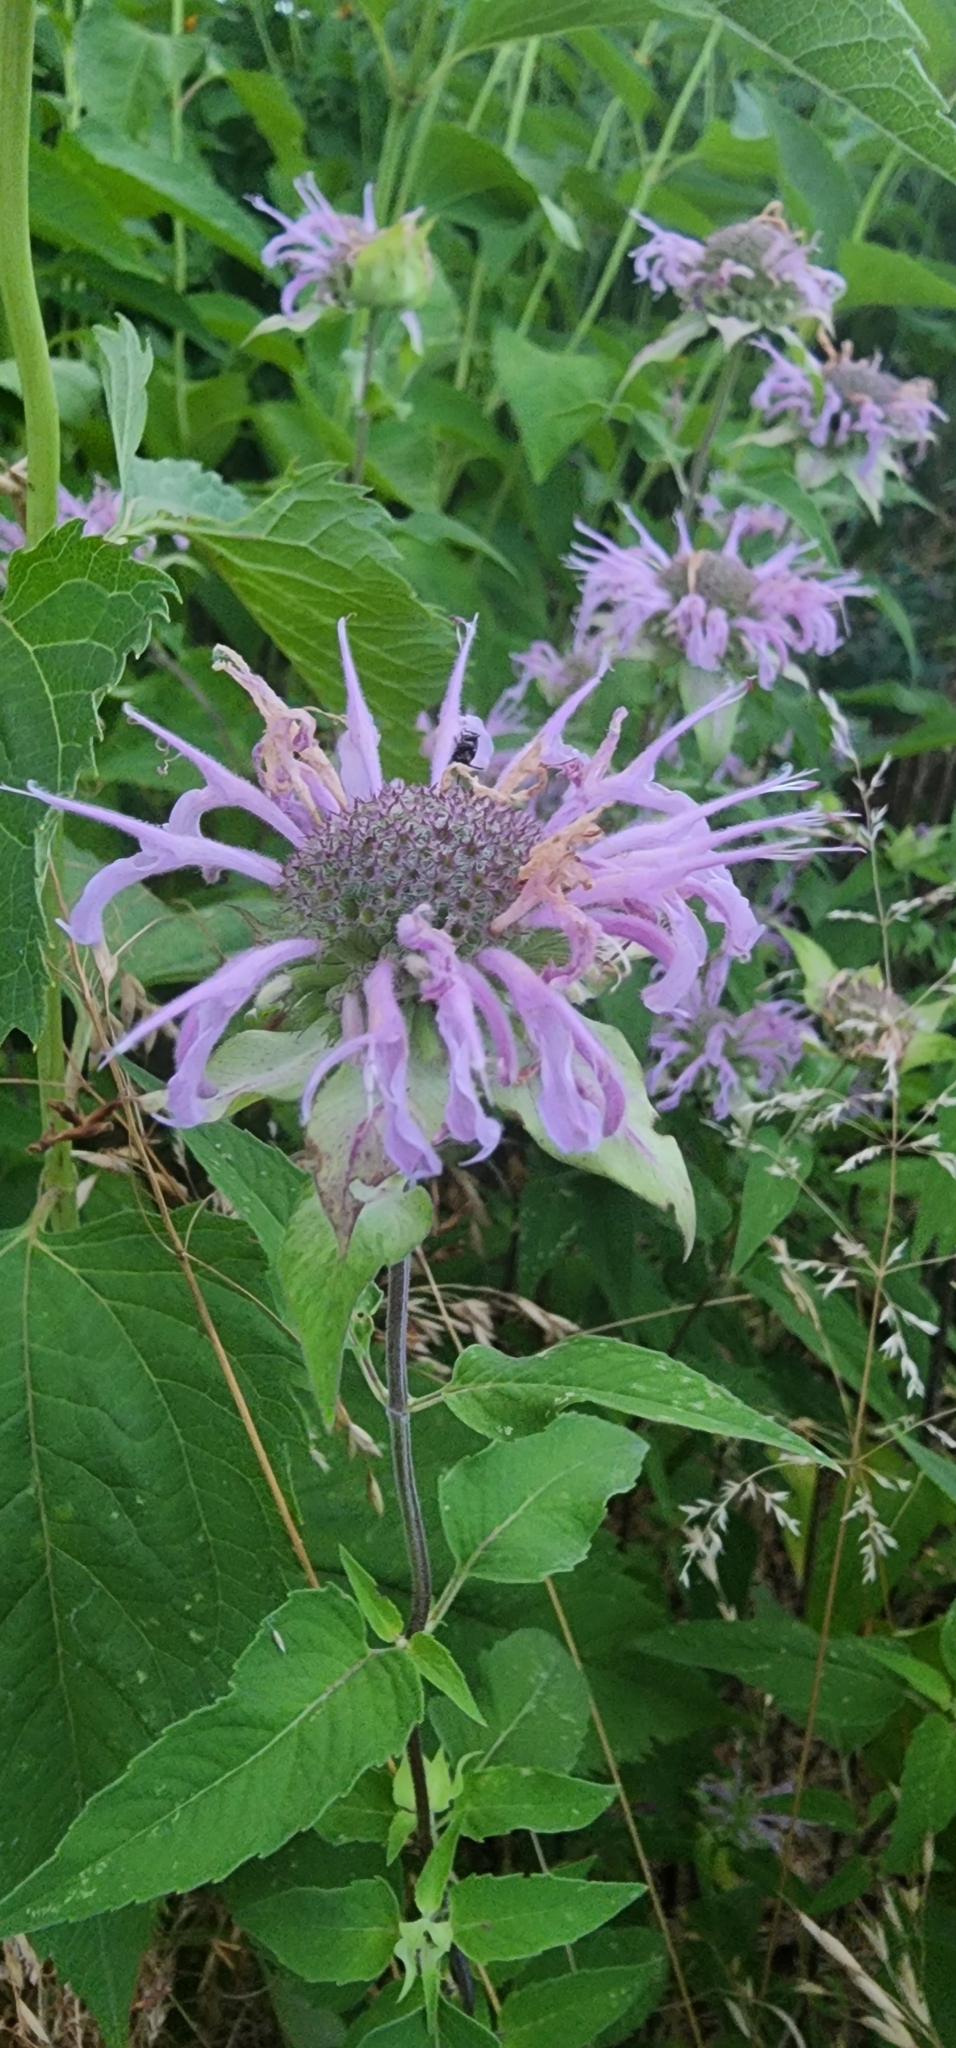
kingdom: Plantae
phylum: Tracheophyta
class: Magnoliopsida
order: Lamiales
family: Lamiaceae
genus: Monarda
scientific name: Monarda fistulosa
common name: Purple beebalm
